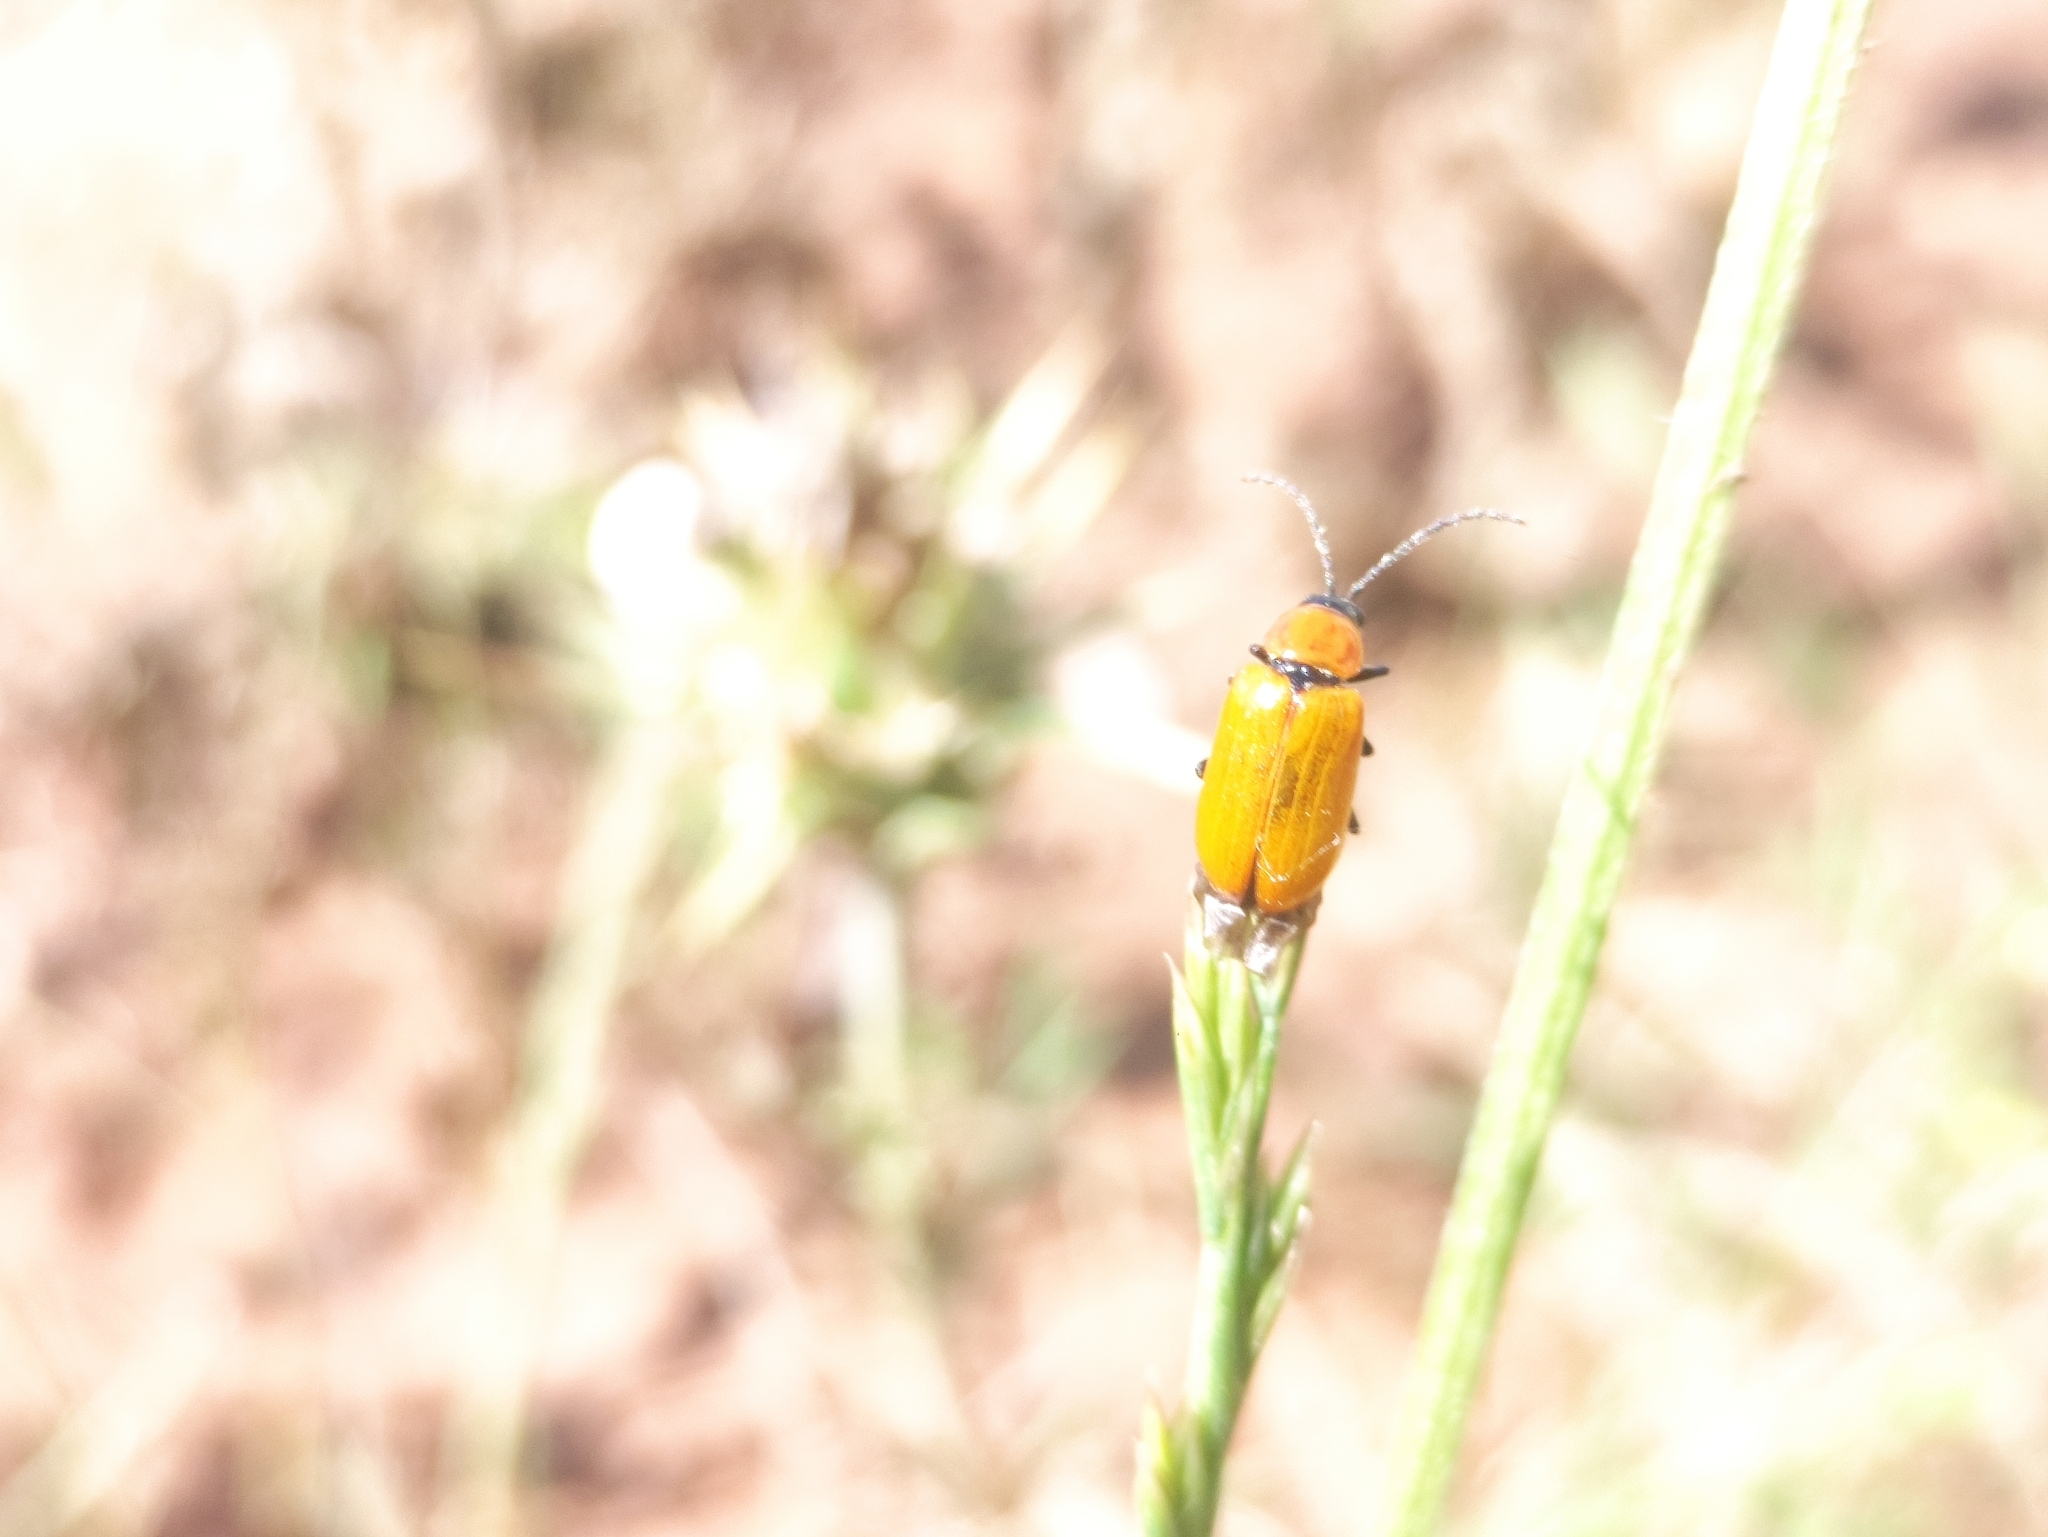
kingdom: Animalia
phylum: Arthropoda
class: Insecta
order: Coleoptera
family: Chrysomelidae
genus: Exosoma
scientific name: Exosoma lusitanicum
